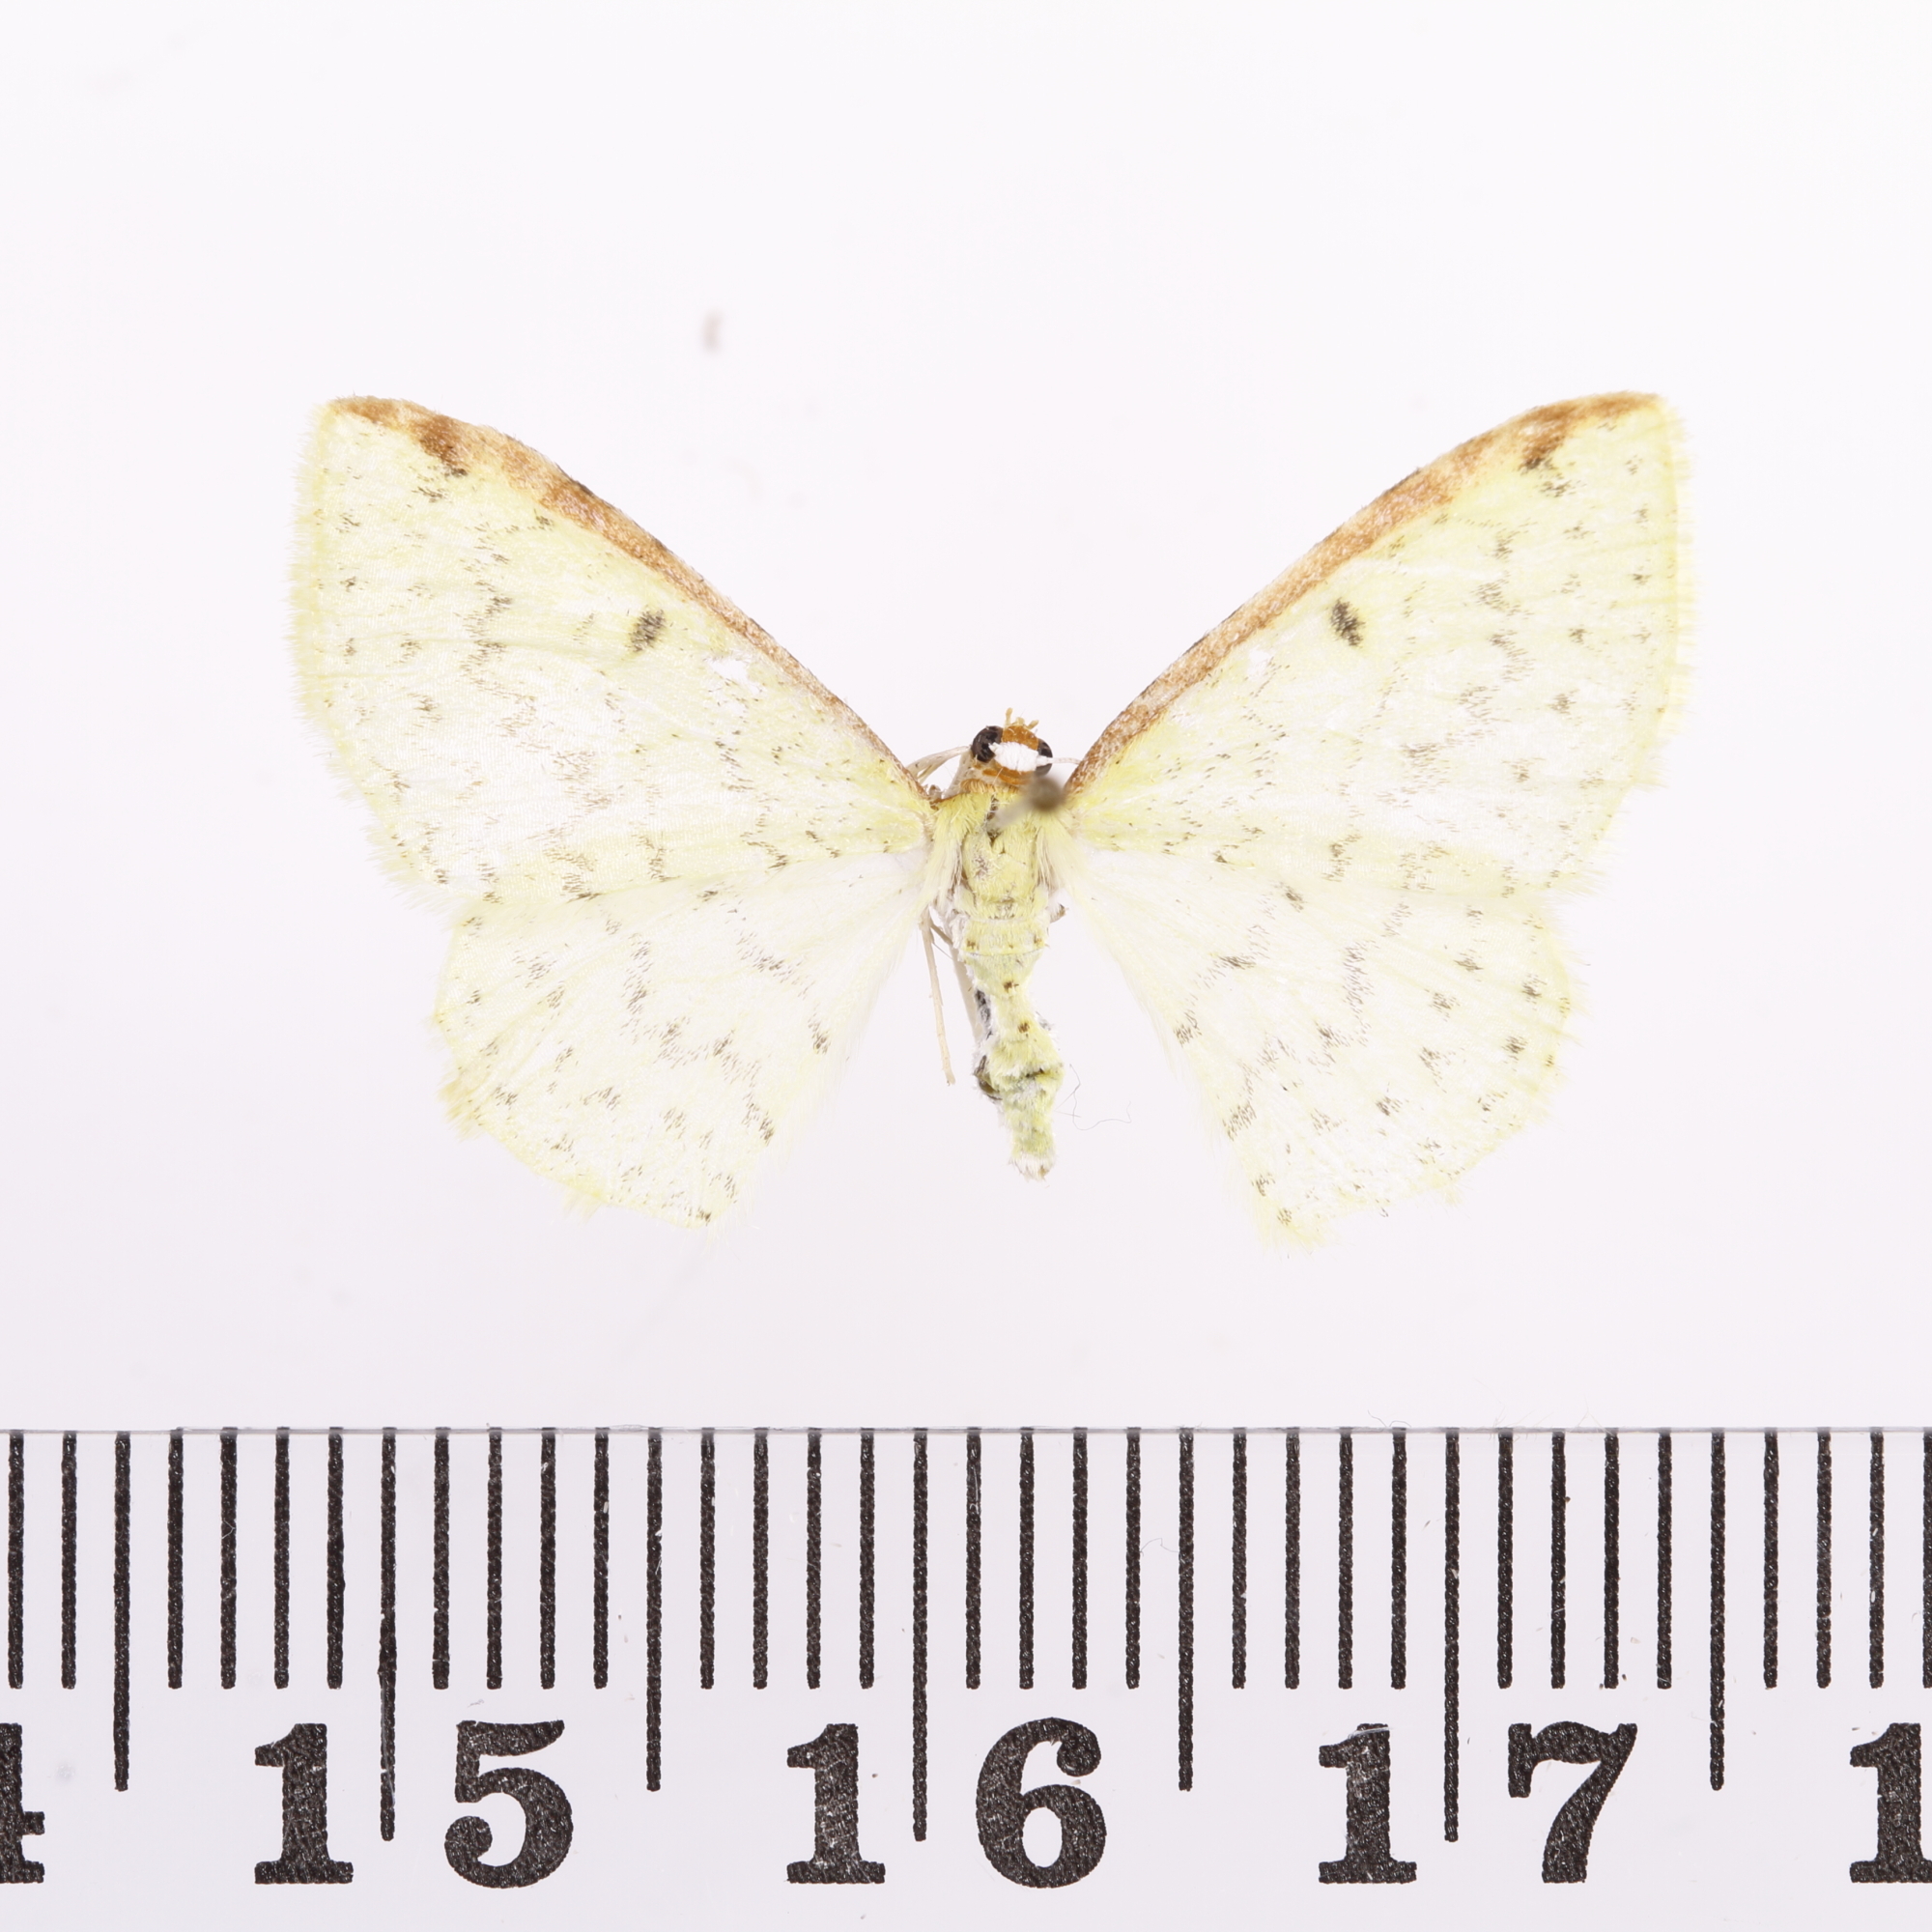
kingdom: Animalia
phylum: Arthropoda
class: Insecta
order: Lepidoptera
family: Geometridae
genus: Epiphryne
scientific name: Epiphryne undosata
